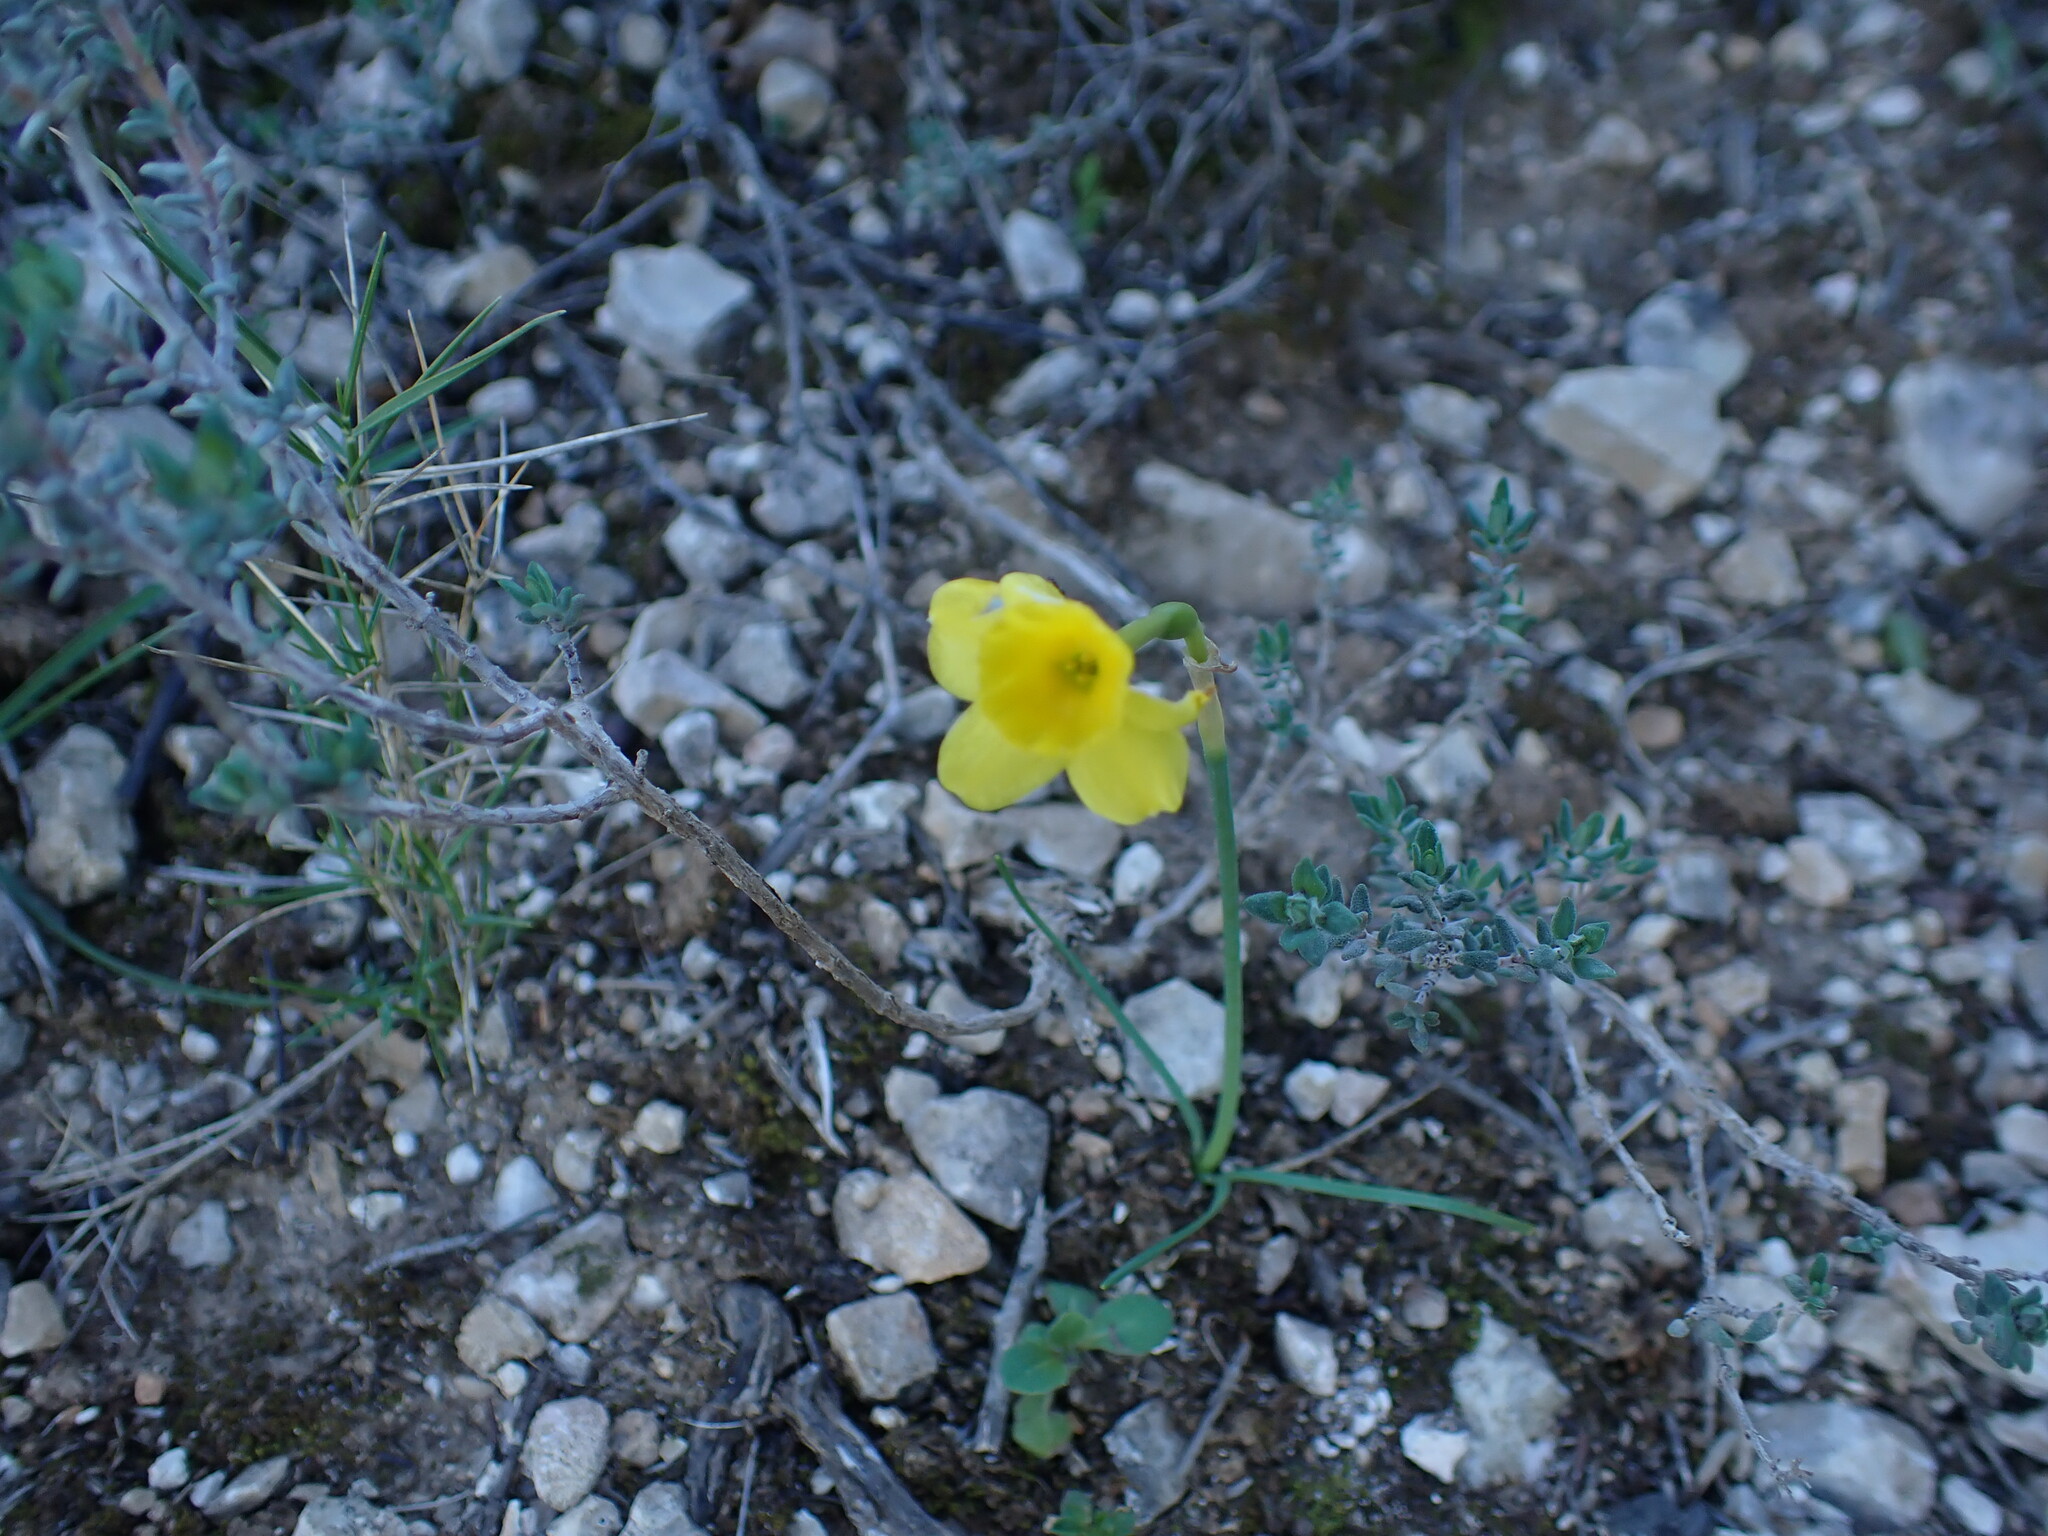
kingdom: Plantae
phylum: Tracheophyta
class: Liliopsida
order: Asparagales
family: Amaryllidaceae
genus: Narcissus
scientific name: Narcissus assoanus
